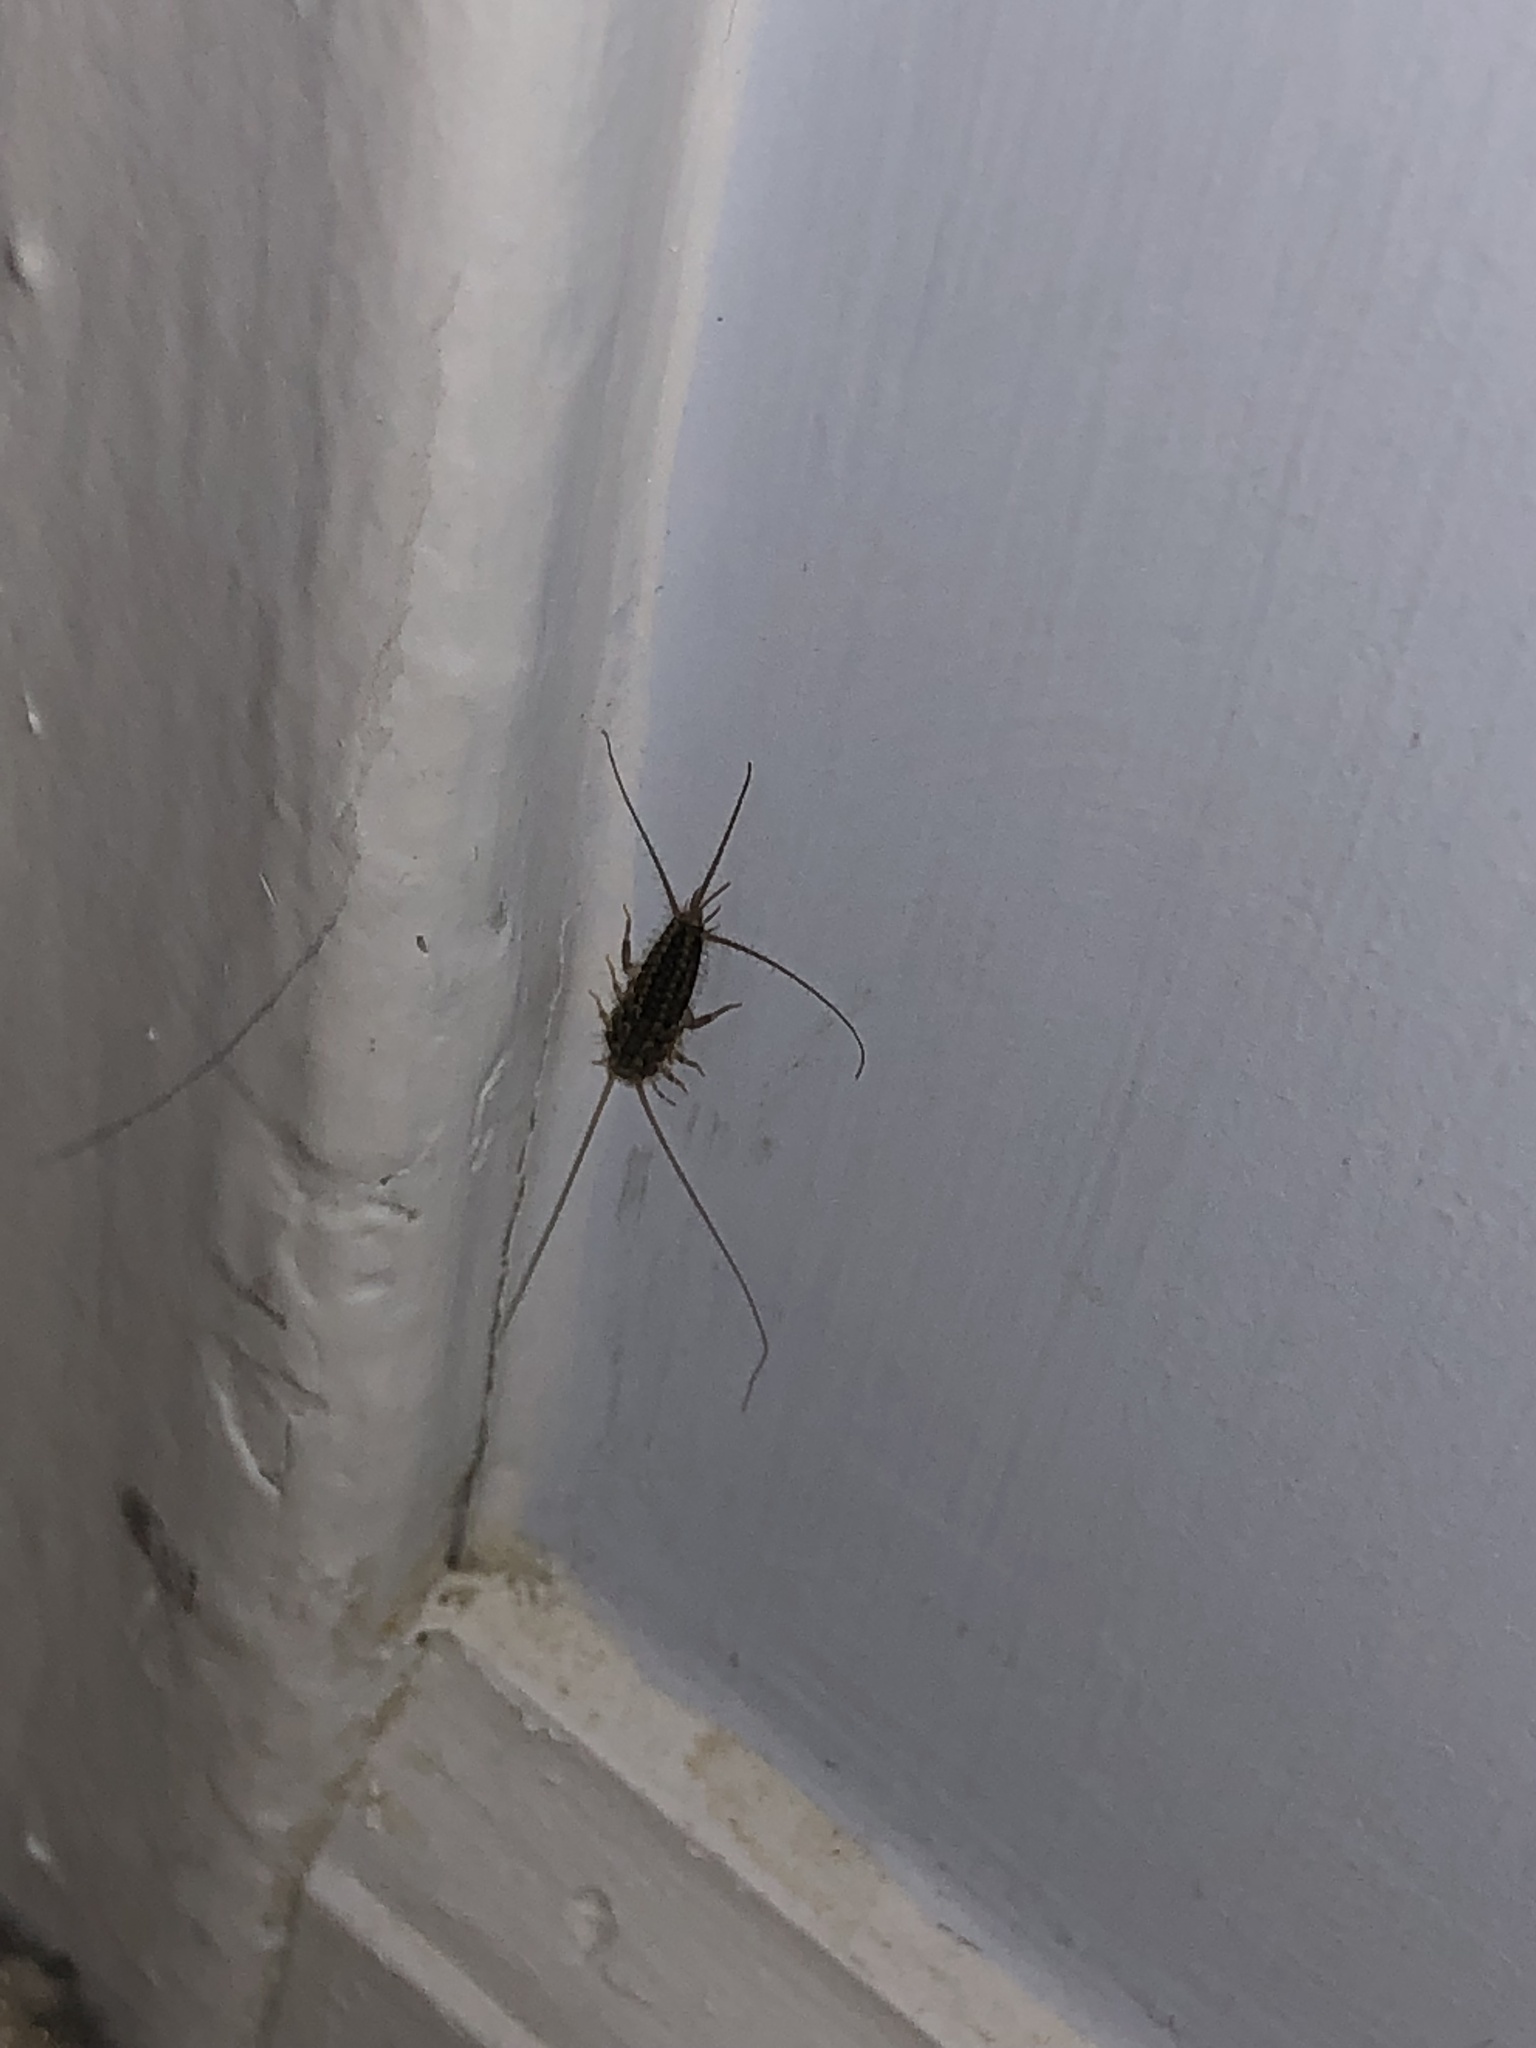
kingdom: Animalia
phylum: Arthropoda
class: Insecta
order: Zygentoma
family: Lepismatidae
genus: Ctenolepisma
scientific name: Ctenolepisma lineata
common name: Four-lined silverfish
